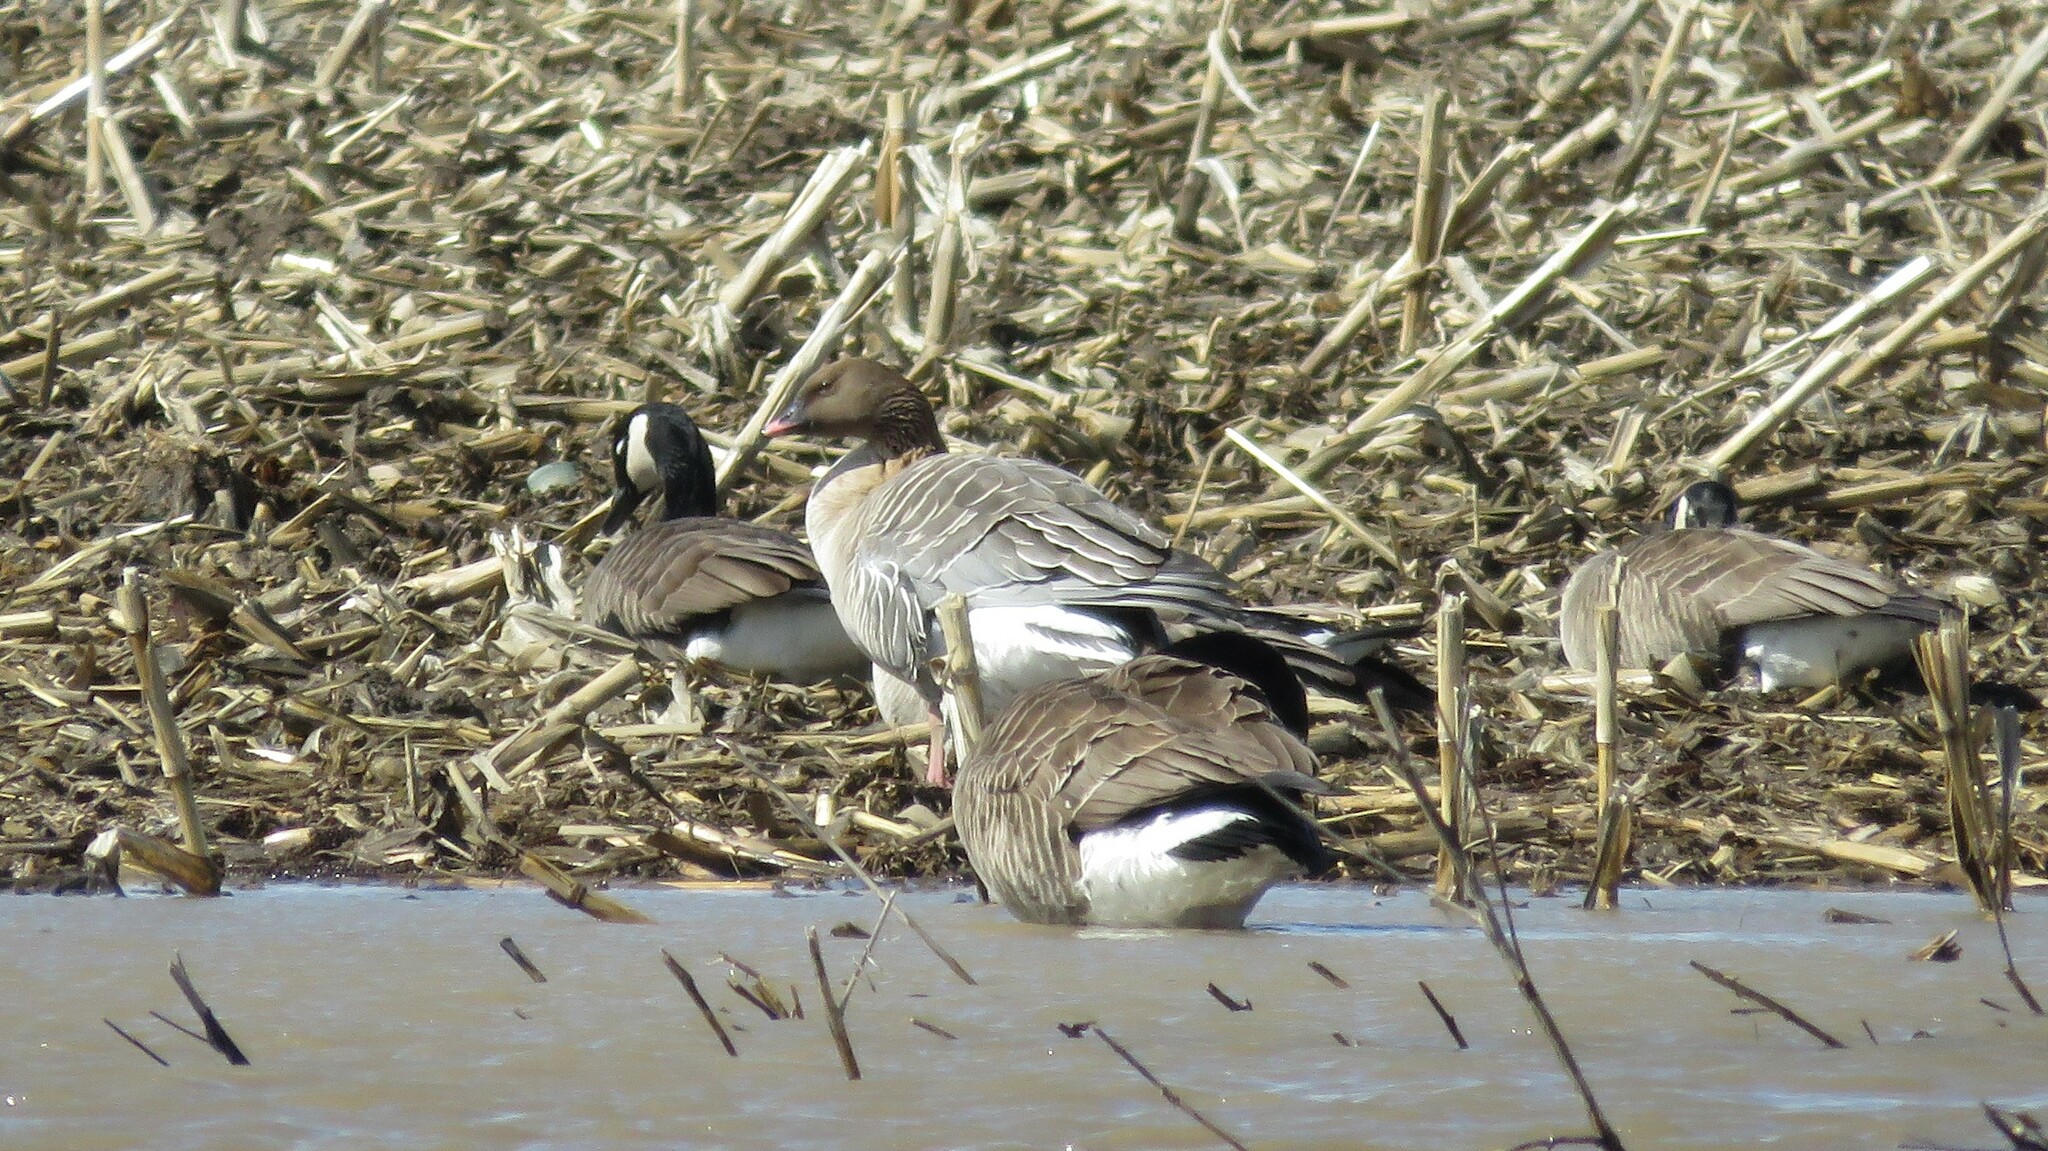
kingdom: Animalia
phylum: Chordata
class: Aves
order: Anseriformes
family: Anatidae
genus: Anser
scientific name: Anser brachyrhynchus
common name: Pink-footed goose
